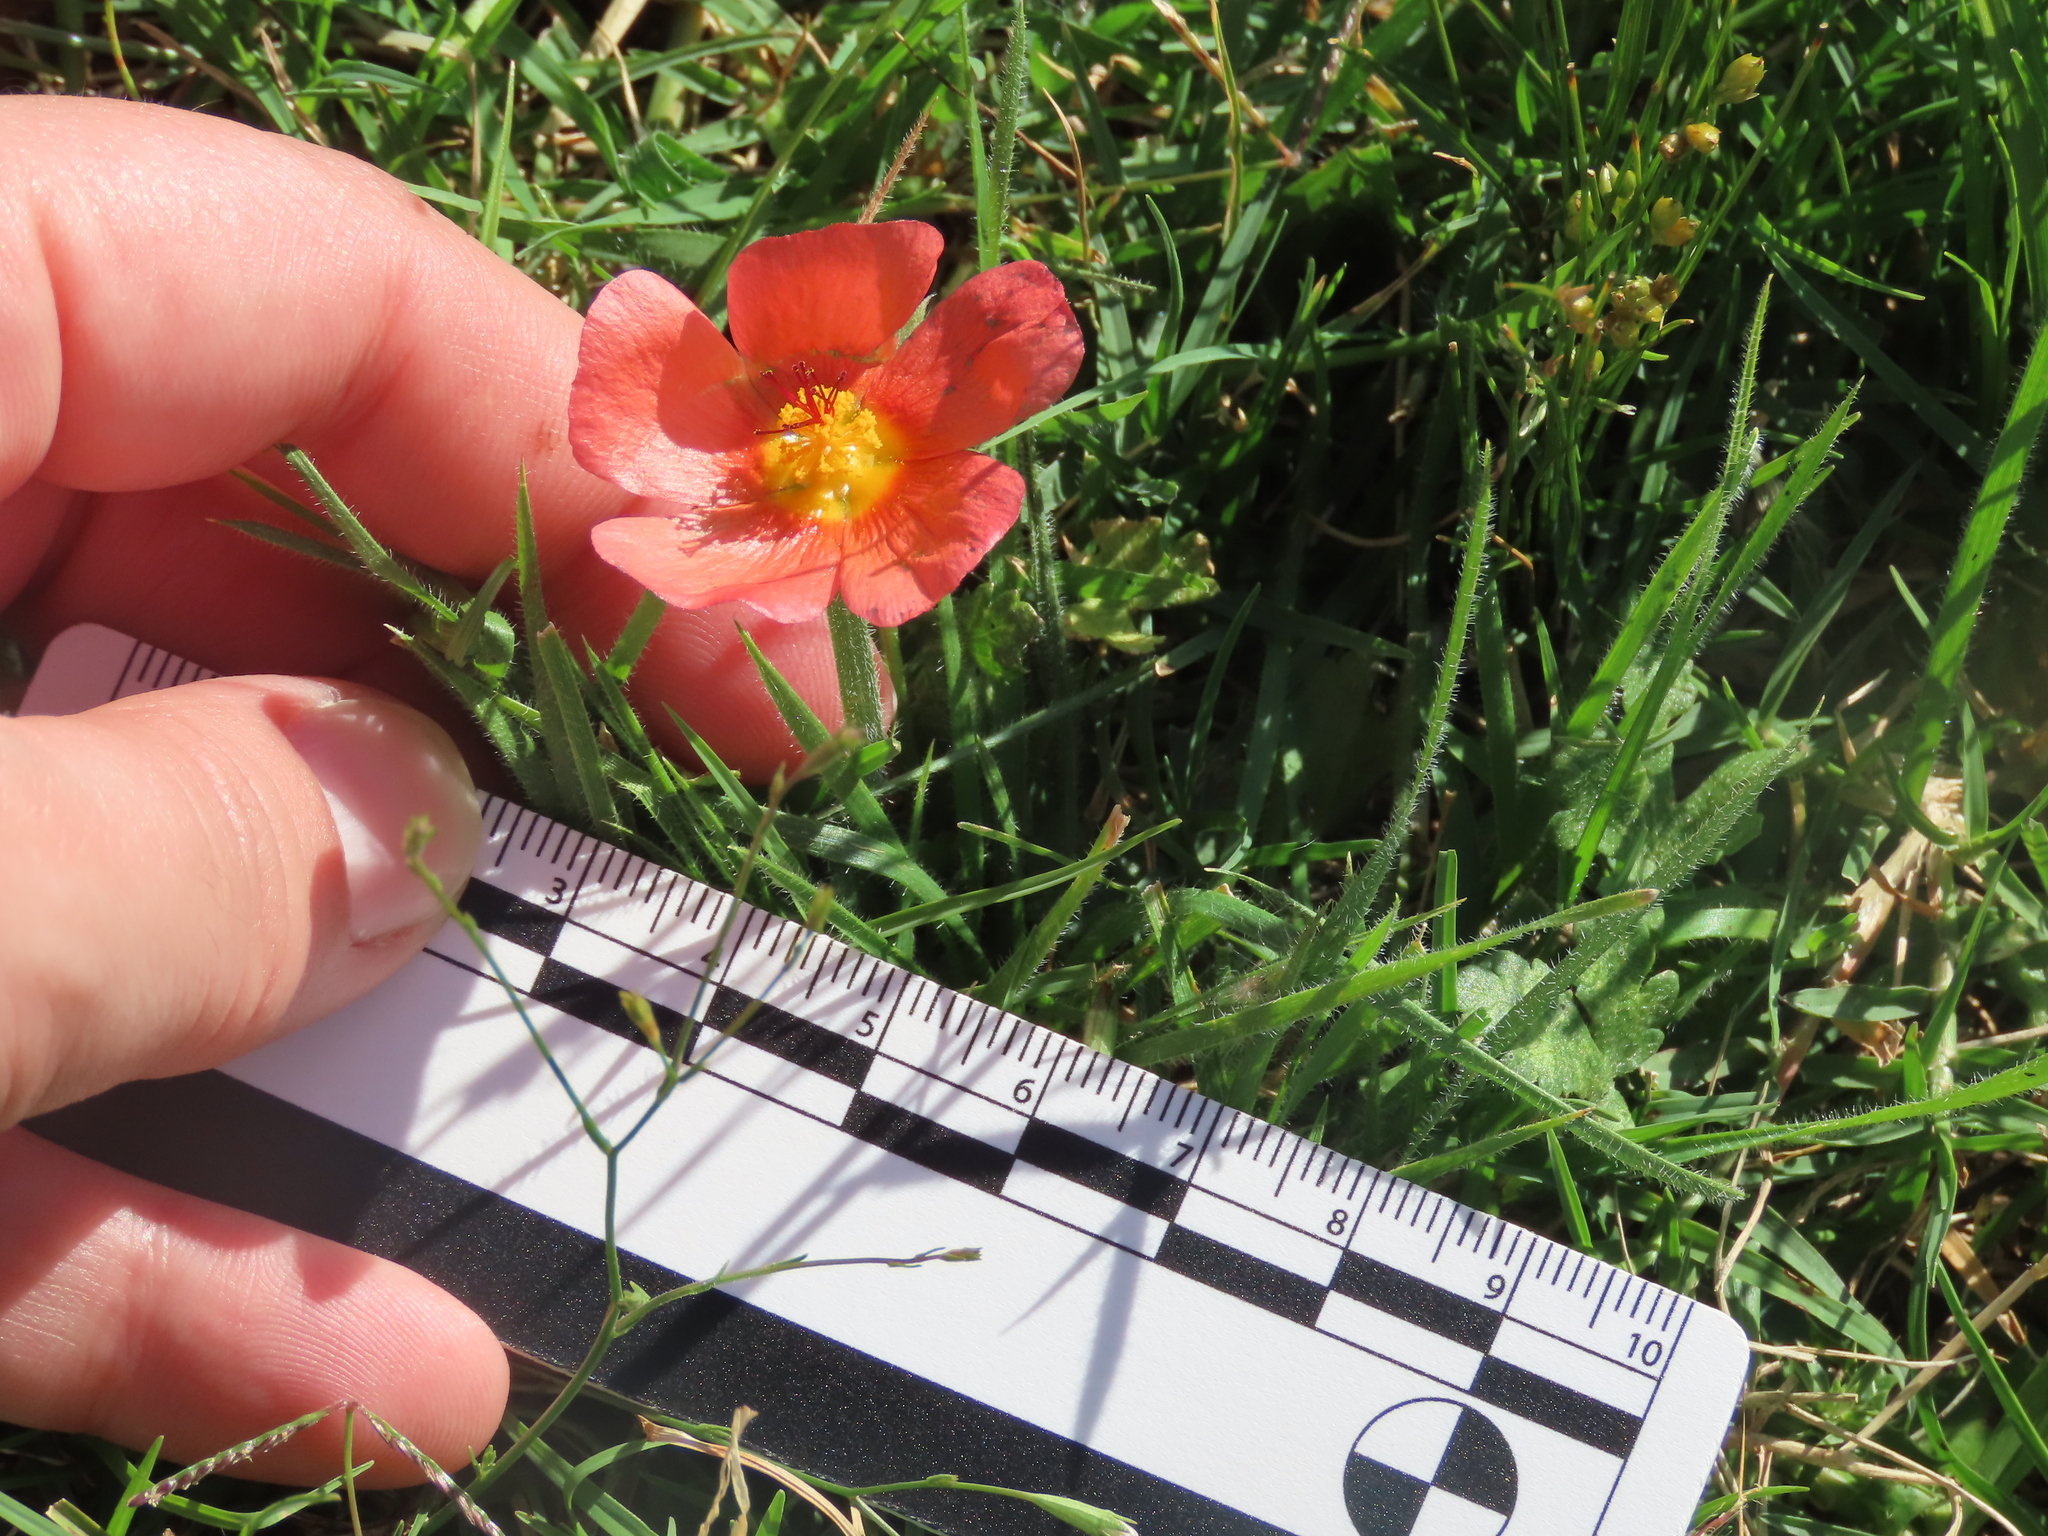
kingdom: Plantae
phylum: Tracheophyta
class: Magnoliopsida
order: Malvales
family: Malvaceae
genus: Modiolastrum
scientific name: Modiolastrum malvifolium
